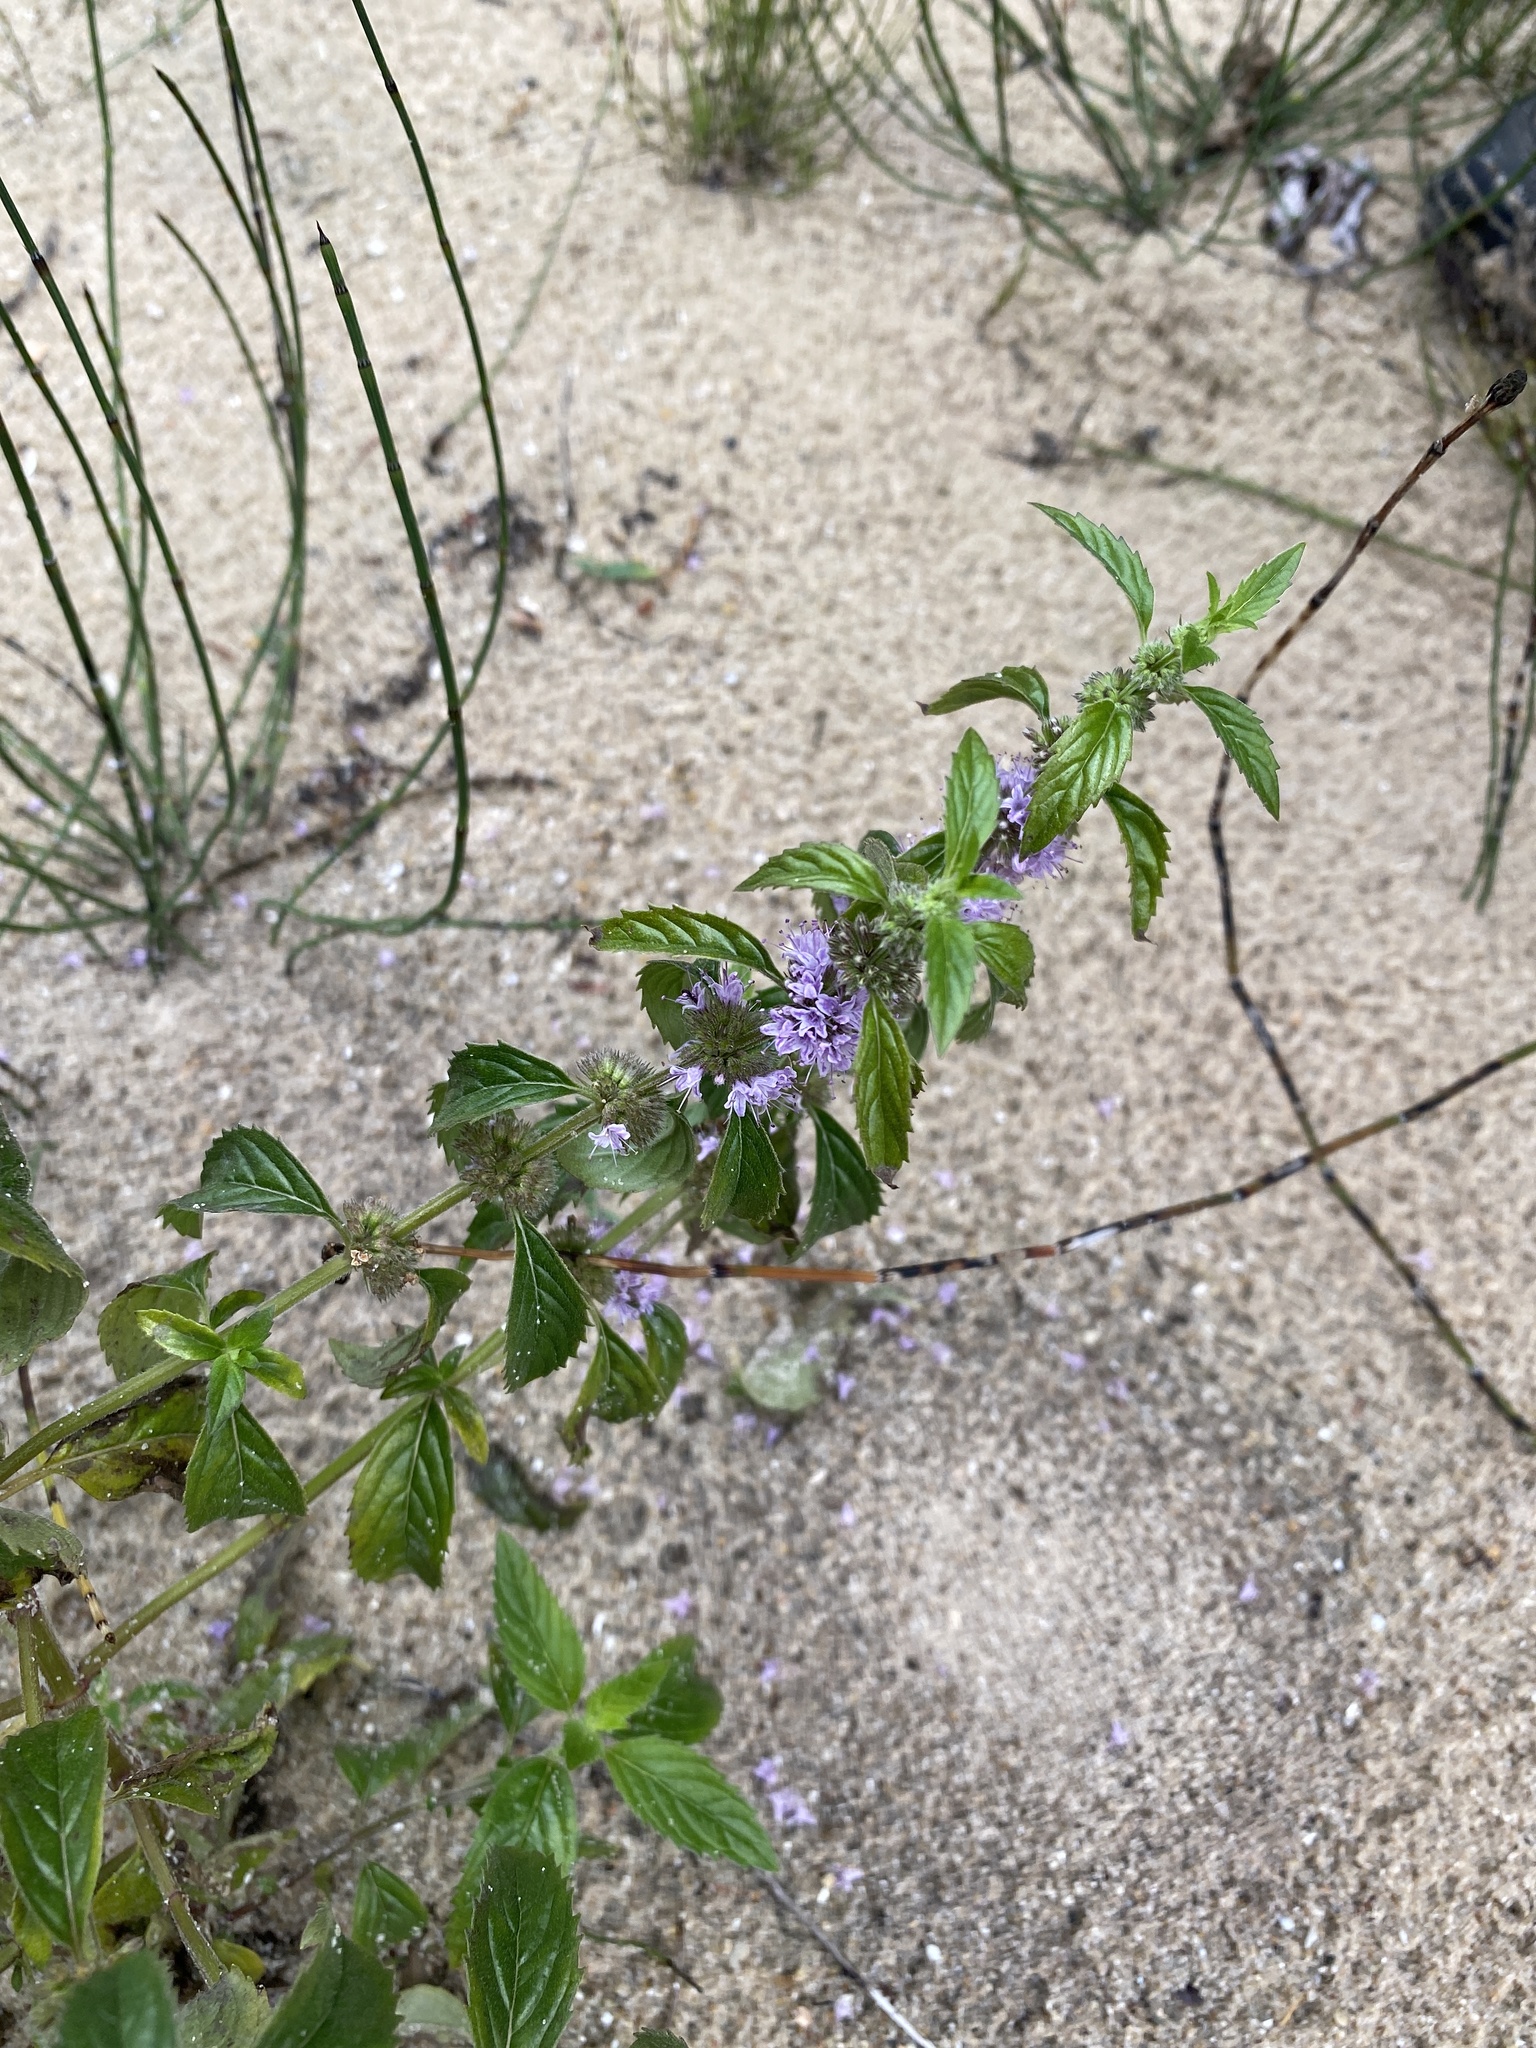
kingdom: Plantae
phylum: Tracheophyta
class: Magnoliopsida
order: Lamiales
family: Lamiaceae
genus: Mentha
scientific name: Mentha canadensis
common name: American corn mint
